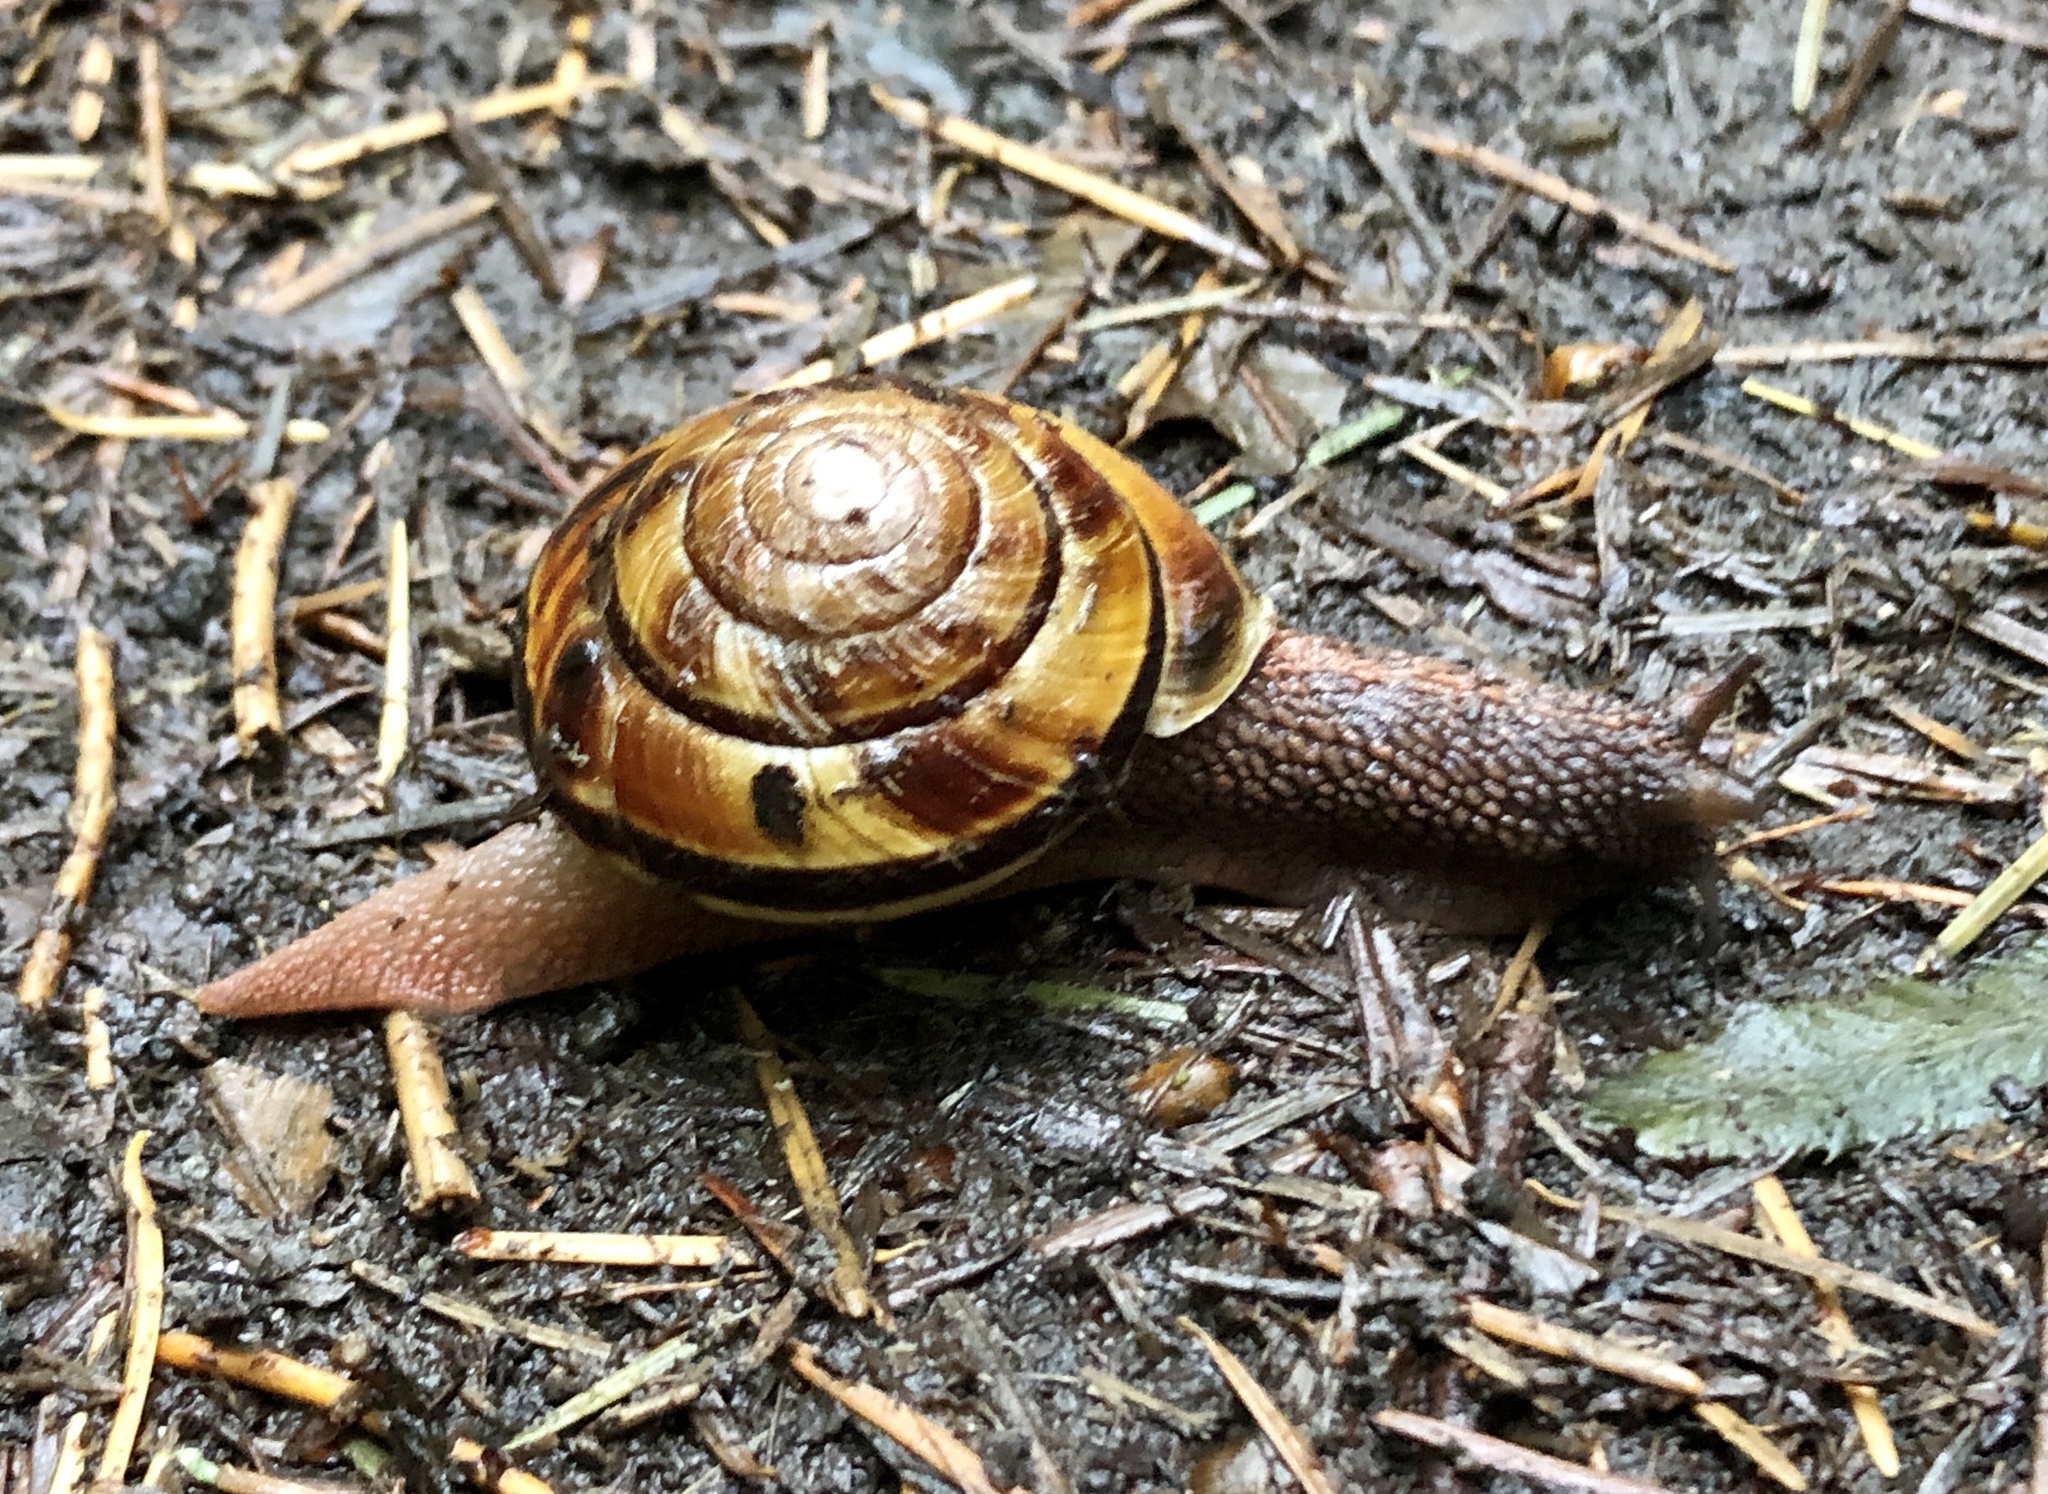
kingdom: Animalia
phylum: Mollusca
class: Gastropoda
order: Stylommatophora
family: Xanthonychidae
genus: Monadenia
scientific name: Monadenia fidelis
